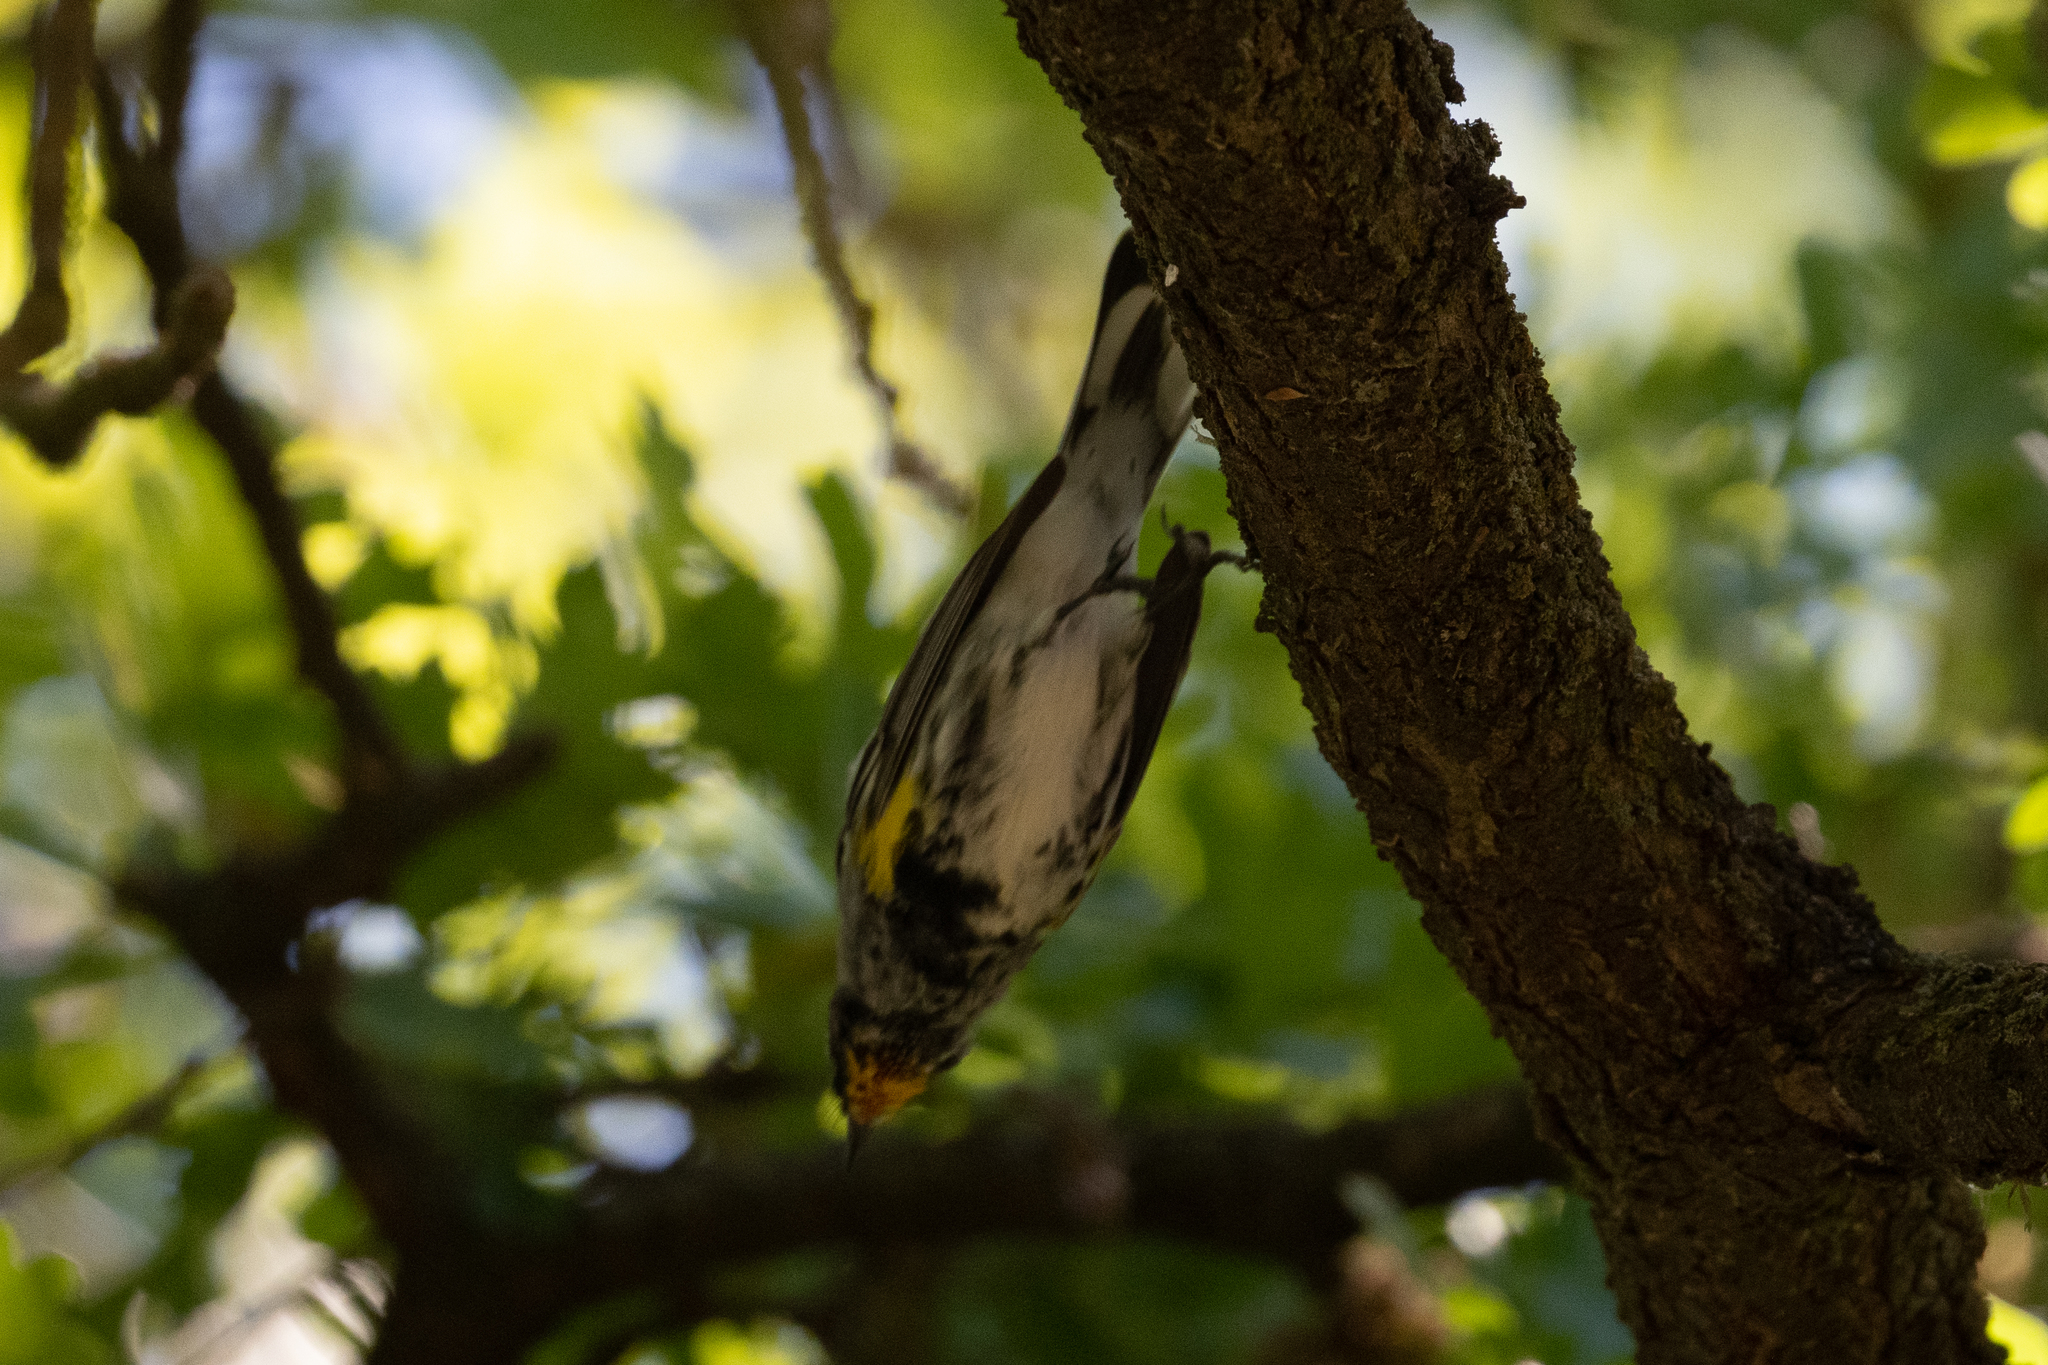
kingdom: Animalia
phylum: Chordata
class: Aves
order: Passeriformes
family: Parulidae
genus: Setophaga
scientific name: Setophaga coronata
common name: Myrtle warbler
